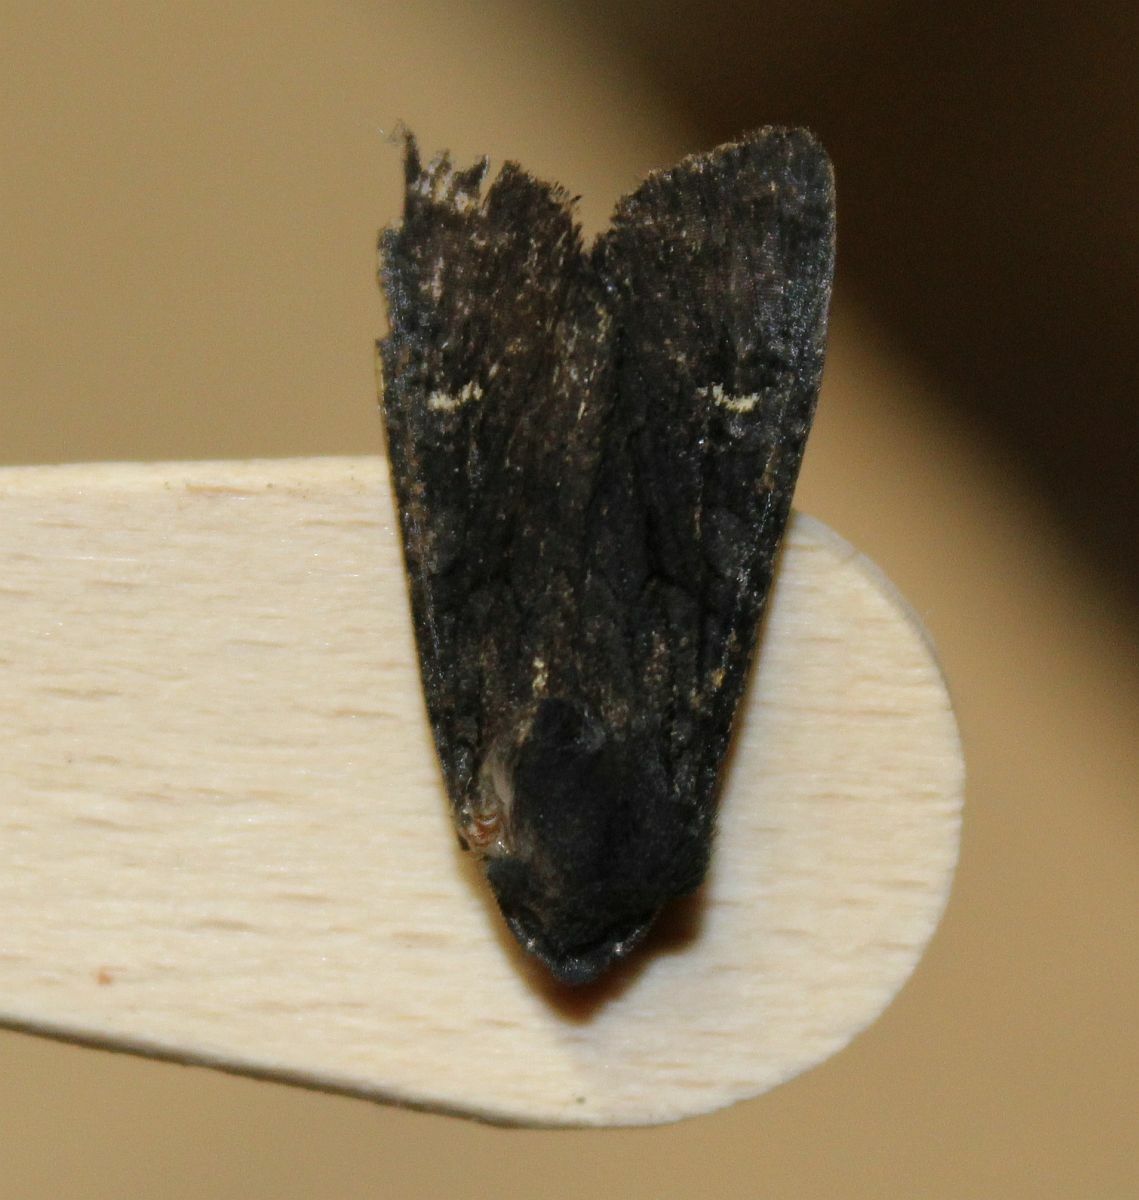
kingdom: Animalia
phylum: Arthropoda
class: Insecta
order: Lepidoptera
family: Noctuidae
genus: Aporophyla
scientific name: Aporophyla nigra
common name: Black rustic
